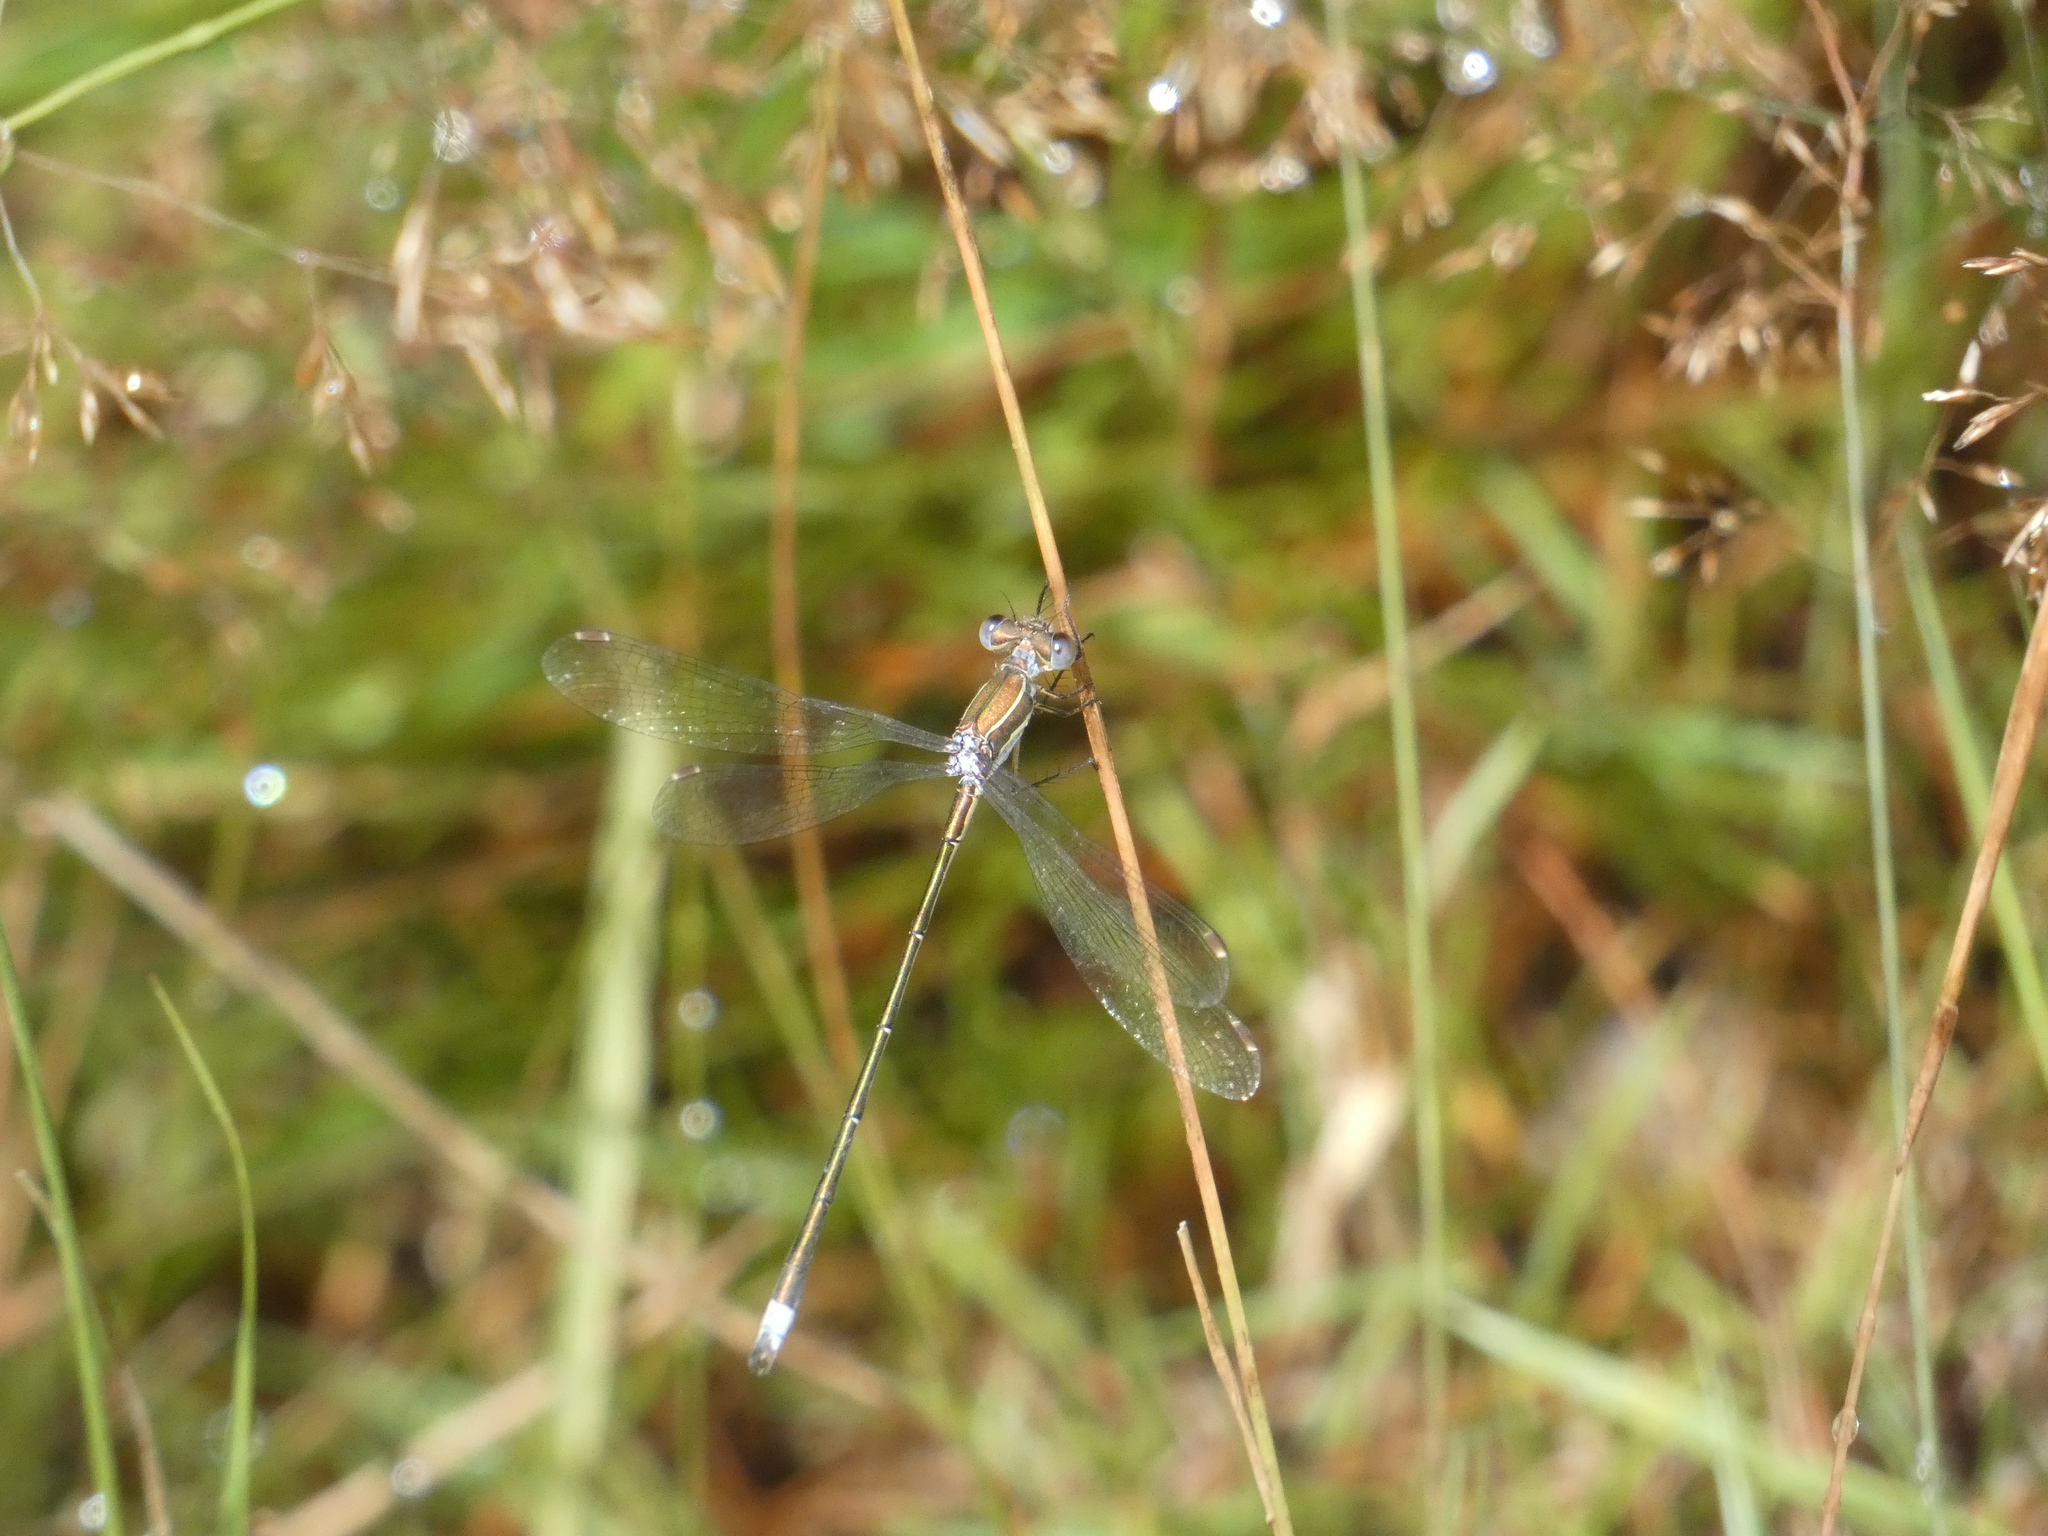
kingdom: Animalia
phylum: Arthropoda
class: Insecta
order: Odonata
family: Lestidae
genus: Lestes
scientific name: Lestes virens
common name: Small emerald spreadwing
